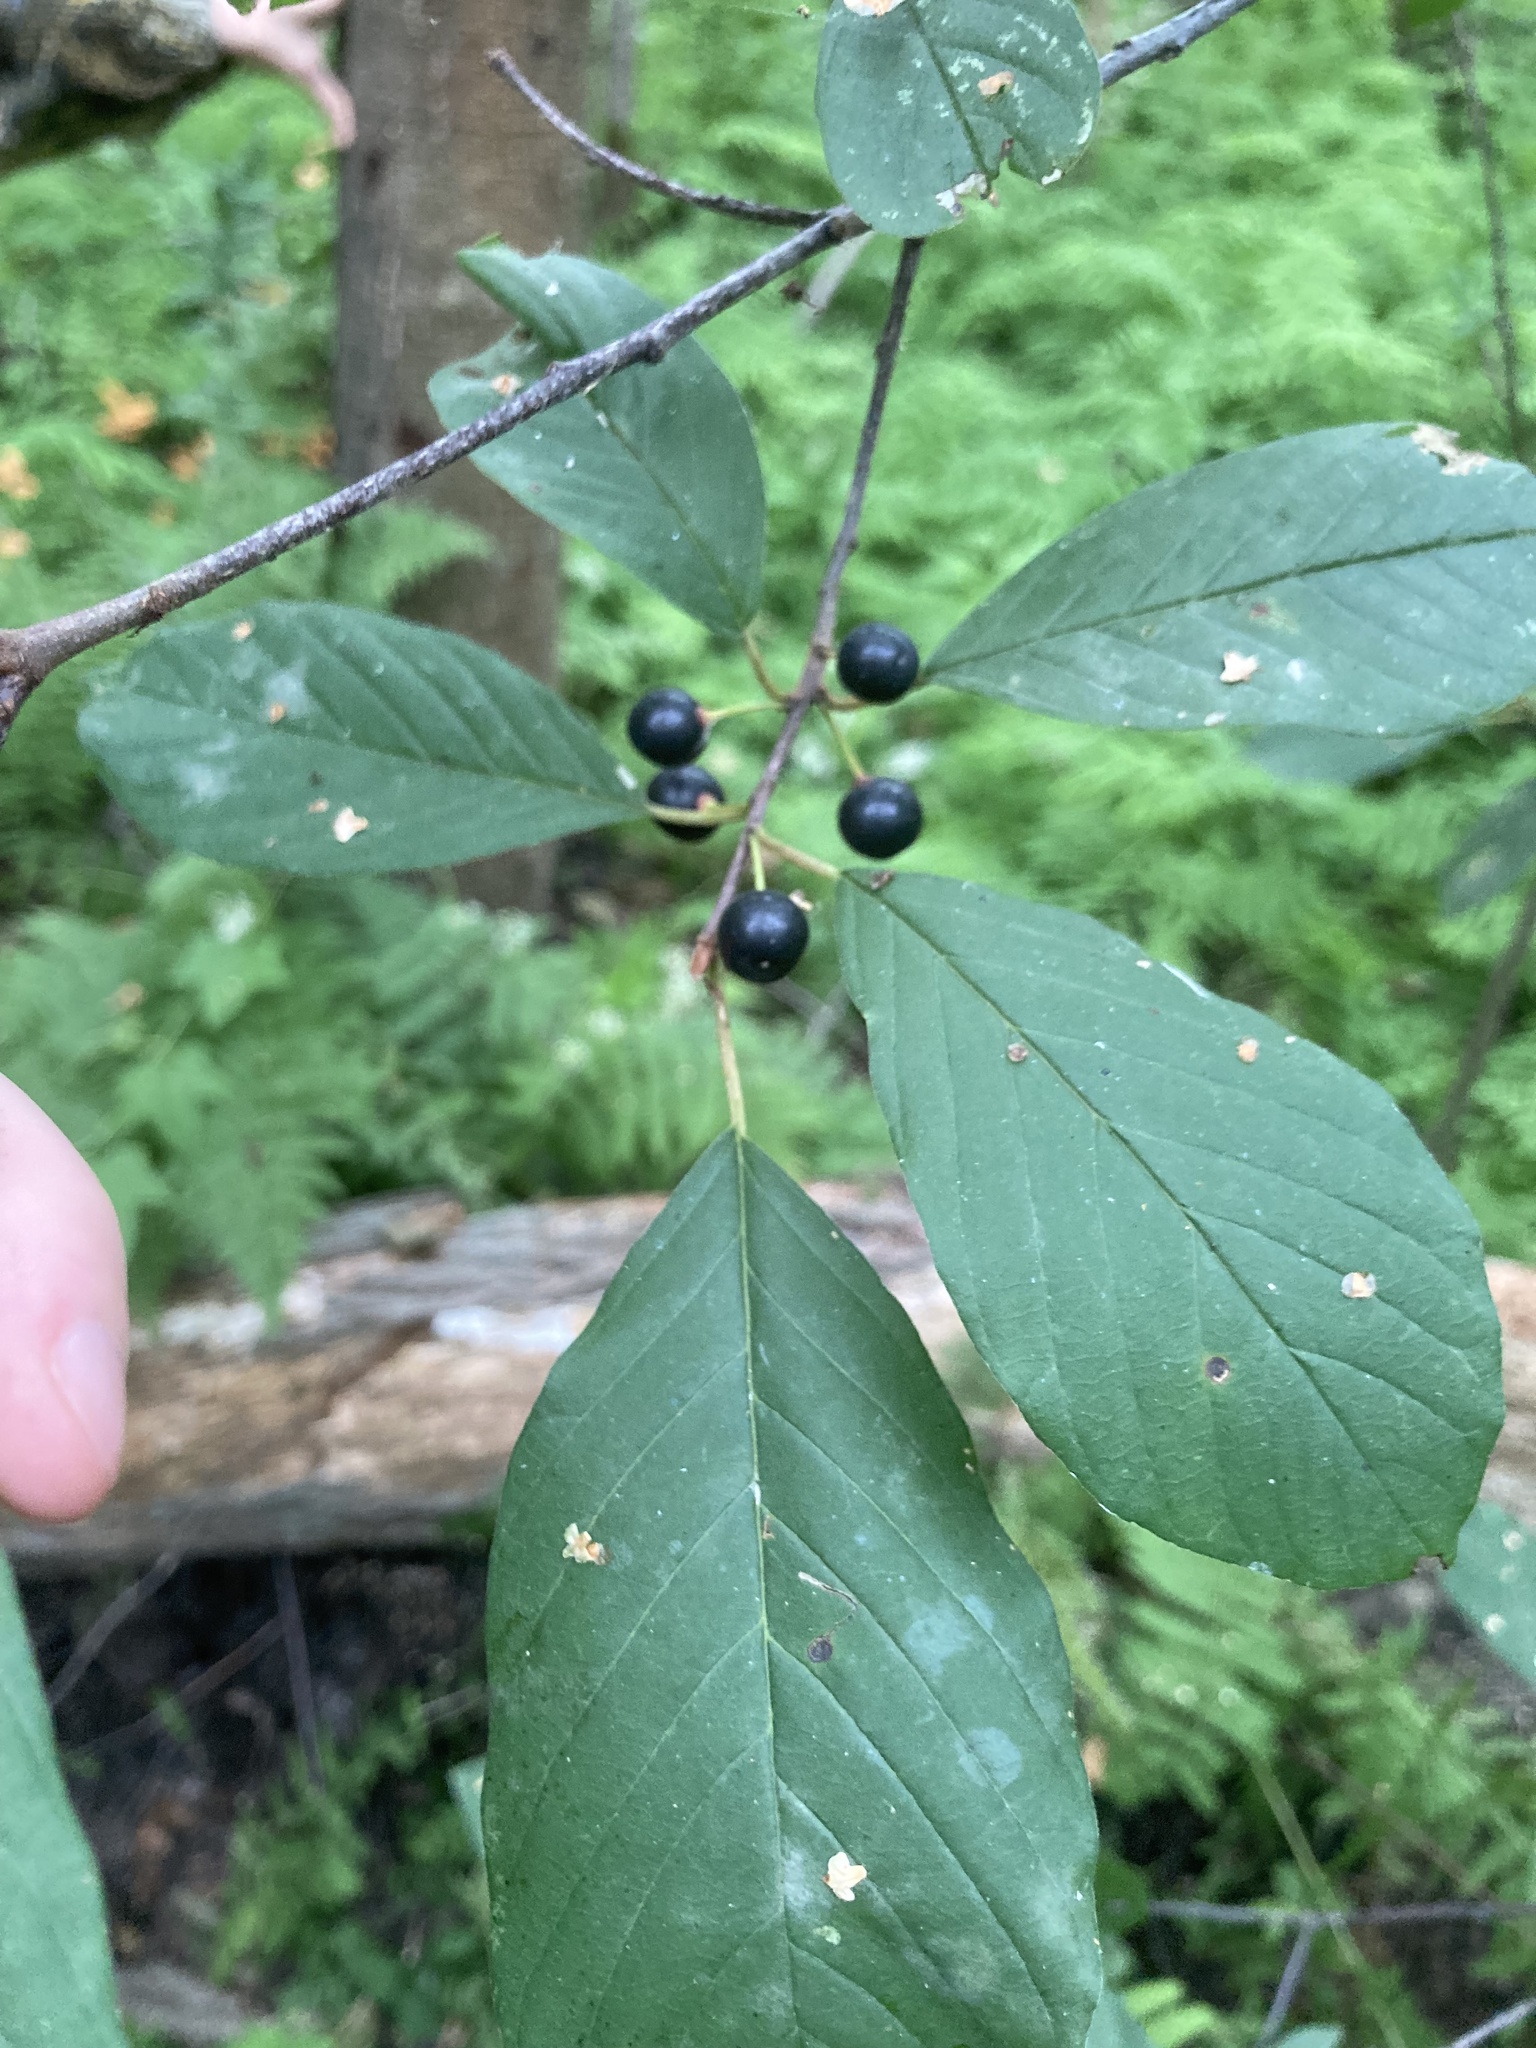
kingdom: Plantae
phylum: Tracheophyta
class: Magnoliopsida
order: Rosales
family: Rhamnaceae
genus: Frangula
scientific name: Frangula alnus
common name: Alder buckthorn
